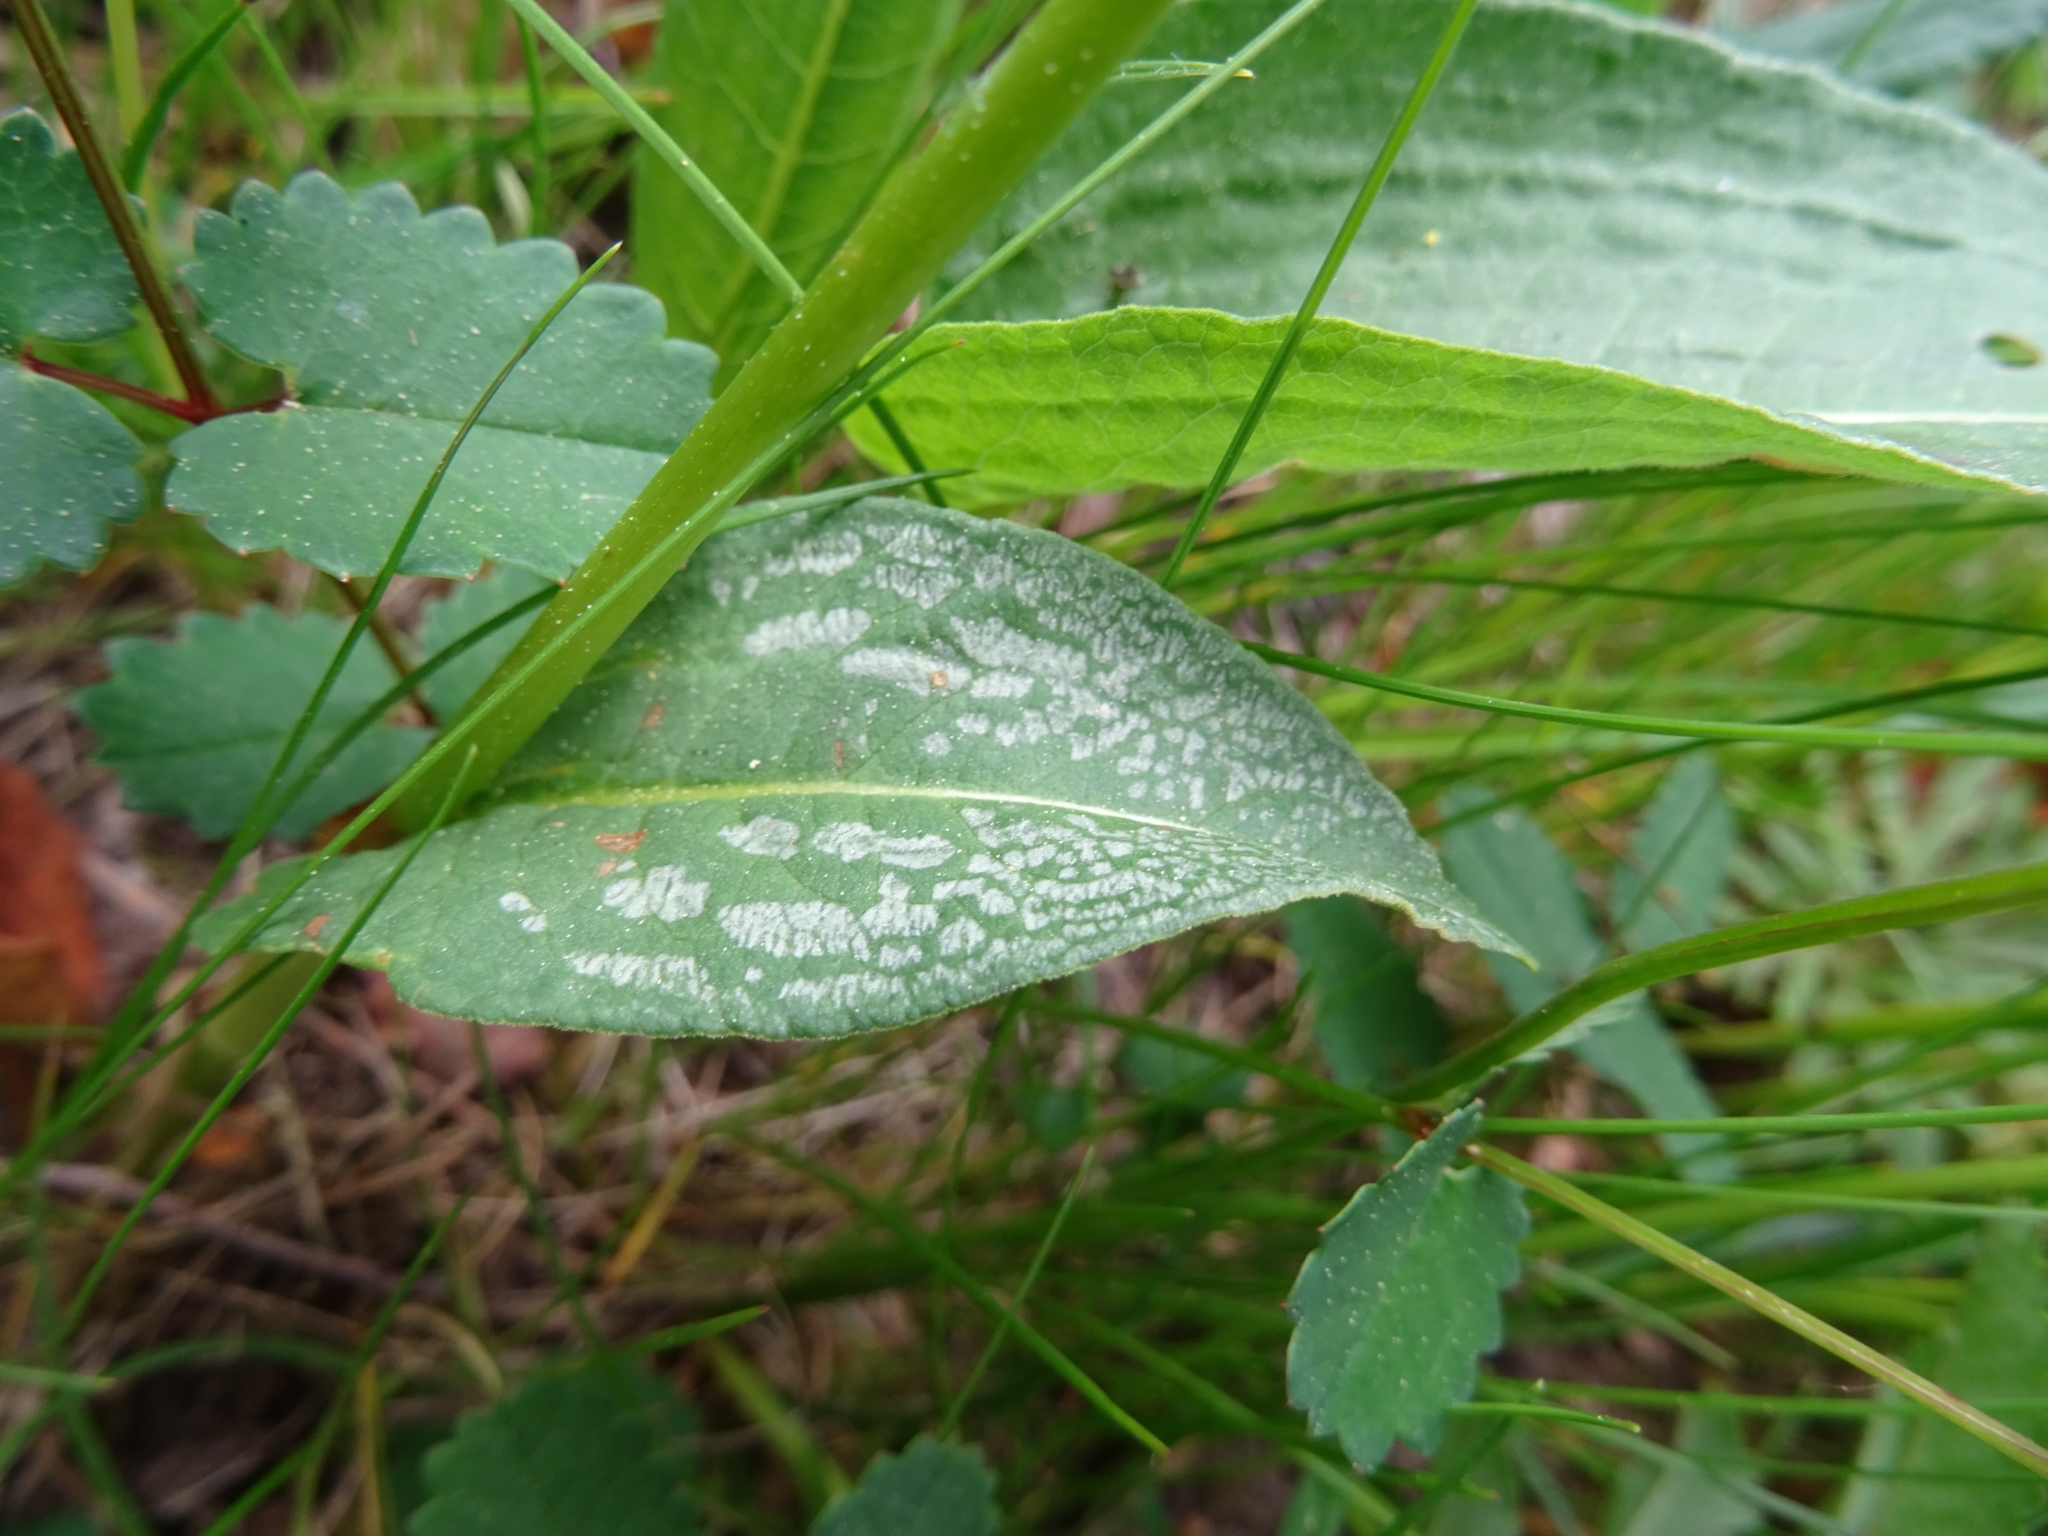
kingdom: Plantae
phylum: Tracheophyta
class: Magnoliopsida
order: Caryophyllales
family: Polygonaceae
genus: Bistorta
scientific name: Bistorta officinalis
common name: Common bistort
